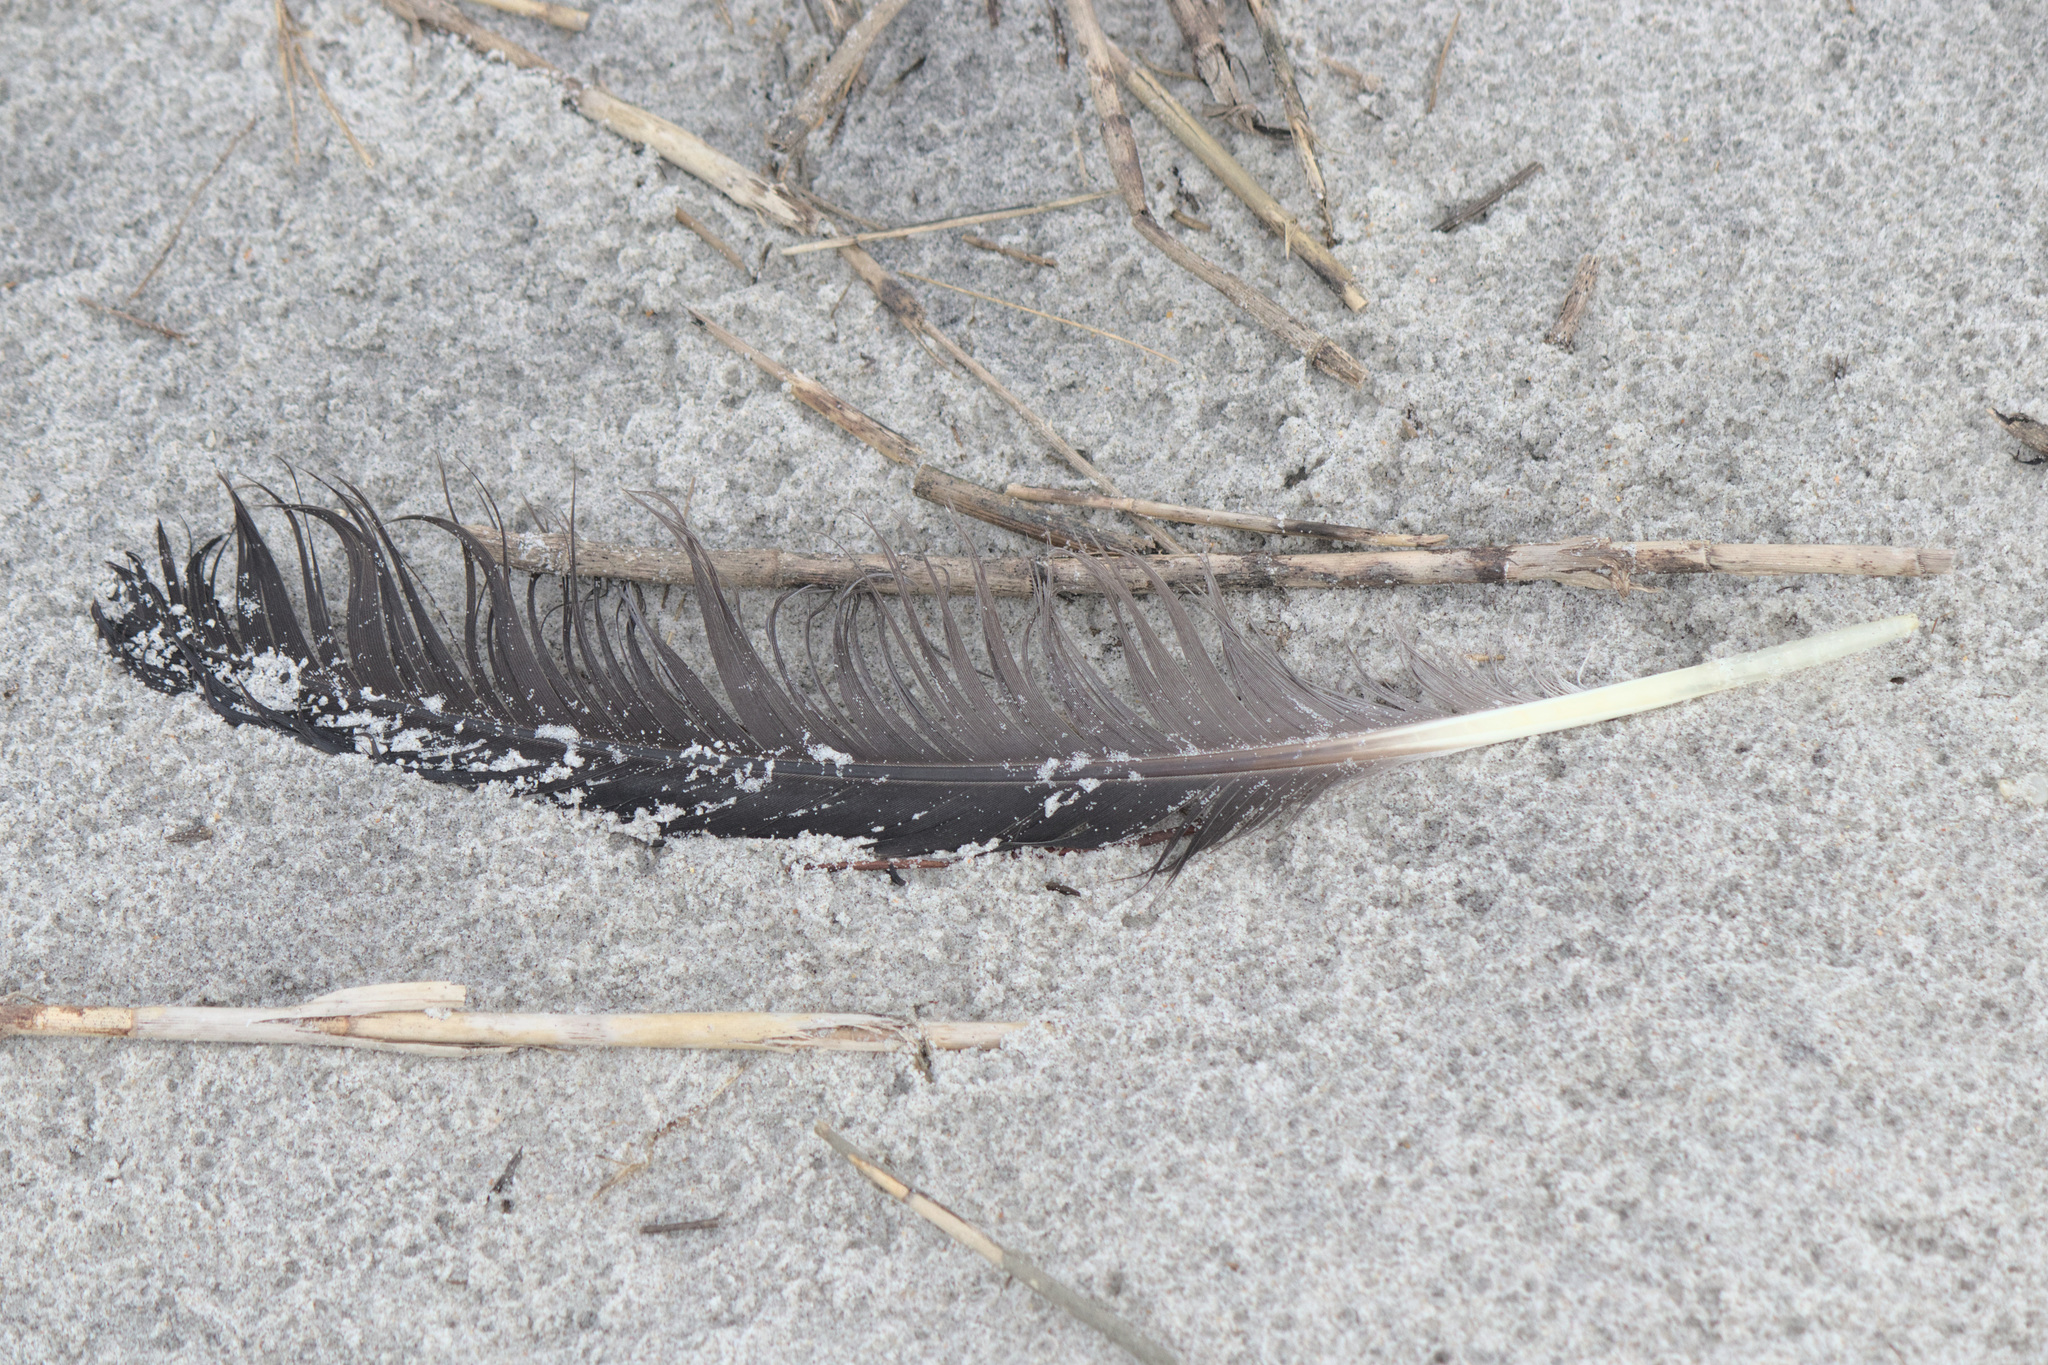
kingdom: Animalia
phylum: Chordata
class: Aves
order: Pelecaniformes
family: Ardeidae
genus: Ardea
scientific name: Ardea herodias
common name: Great blue heron
